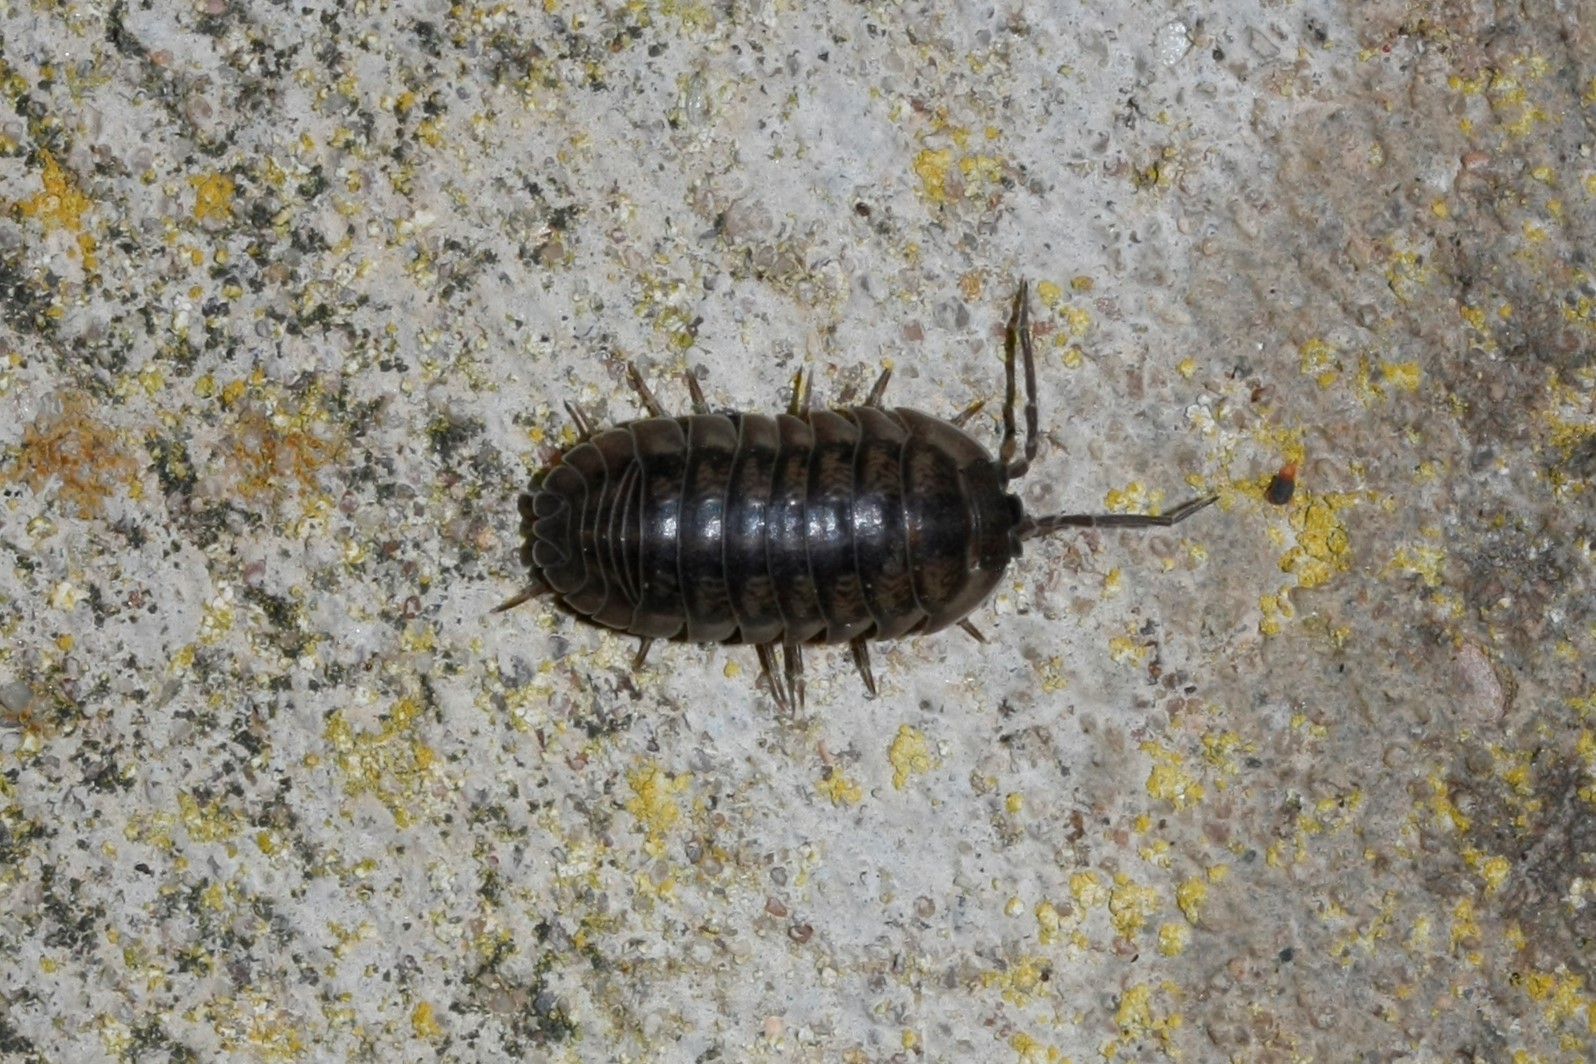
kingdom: Animalia
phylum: Arthropoda
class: Malacostraca
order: Isopoda
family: Armadillidiidae
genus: Armadillidium
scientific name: Armadillidium nasatum
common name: Isopod
